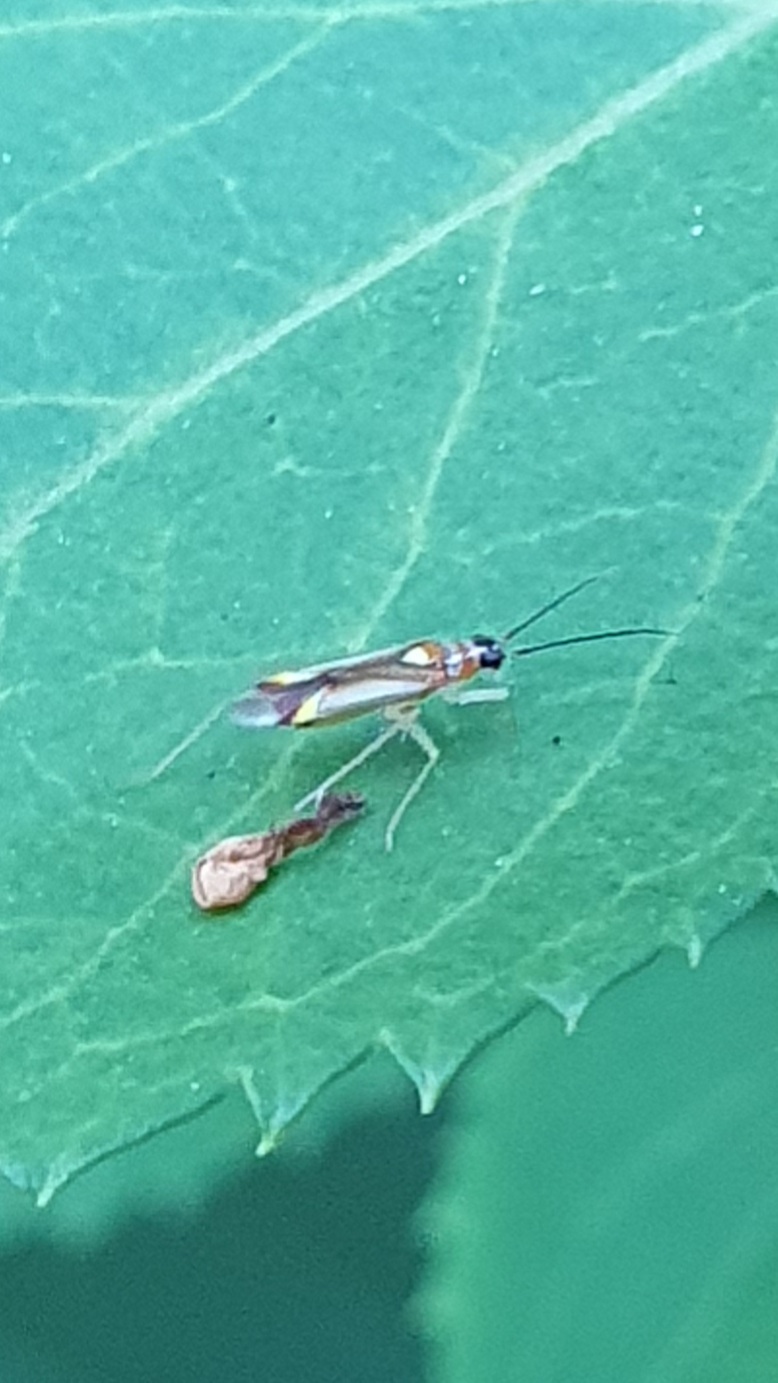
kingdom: Animalia
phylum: Arthropoda
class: Insecta
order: Hemiptera
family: Miridae
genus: Campyloneura
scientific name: Campyloneura virgula
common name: Predatory bug
